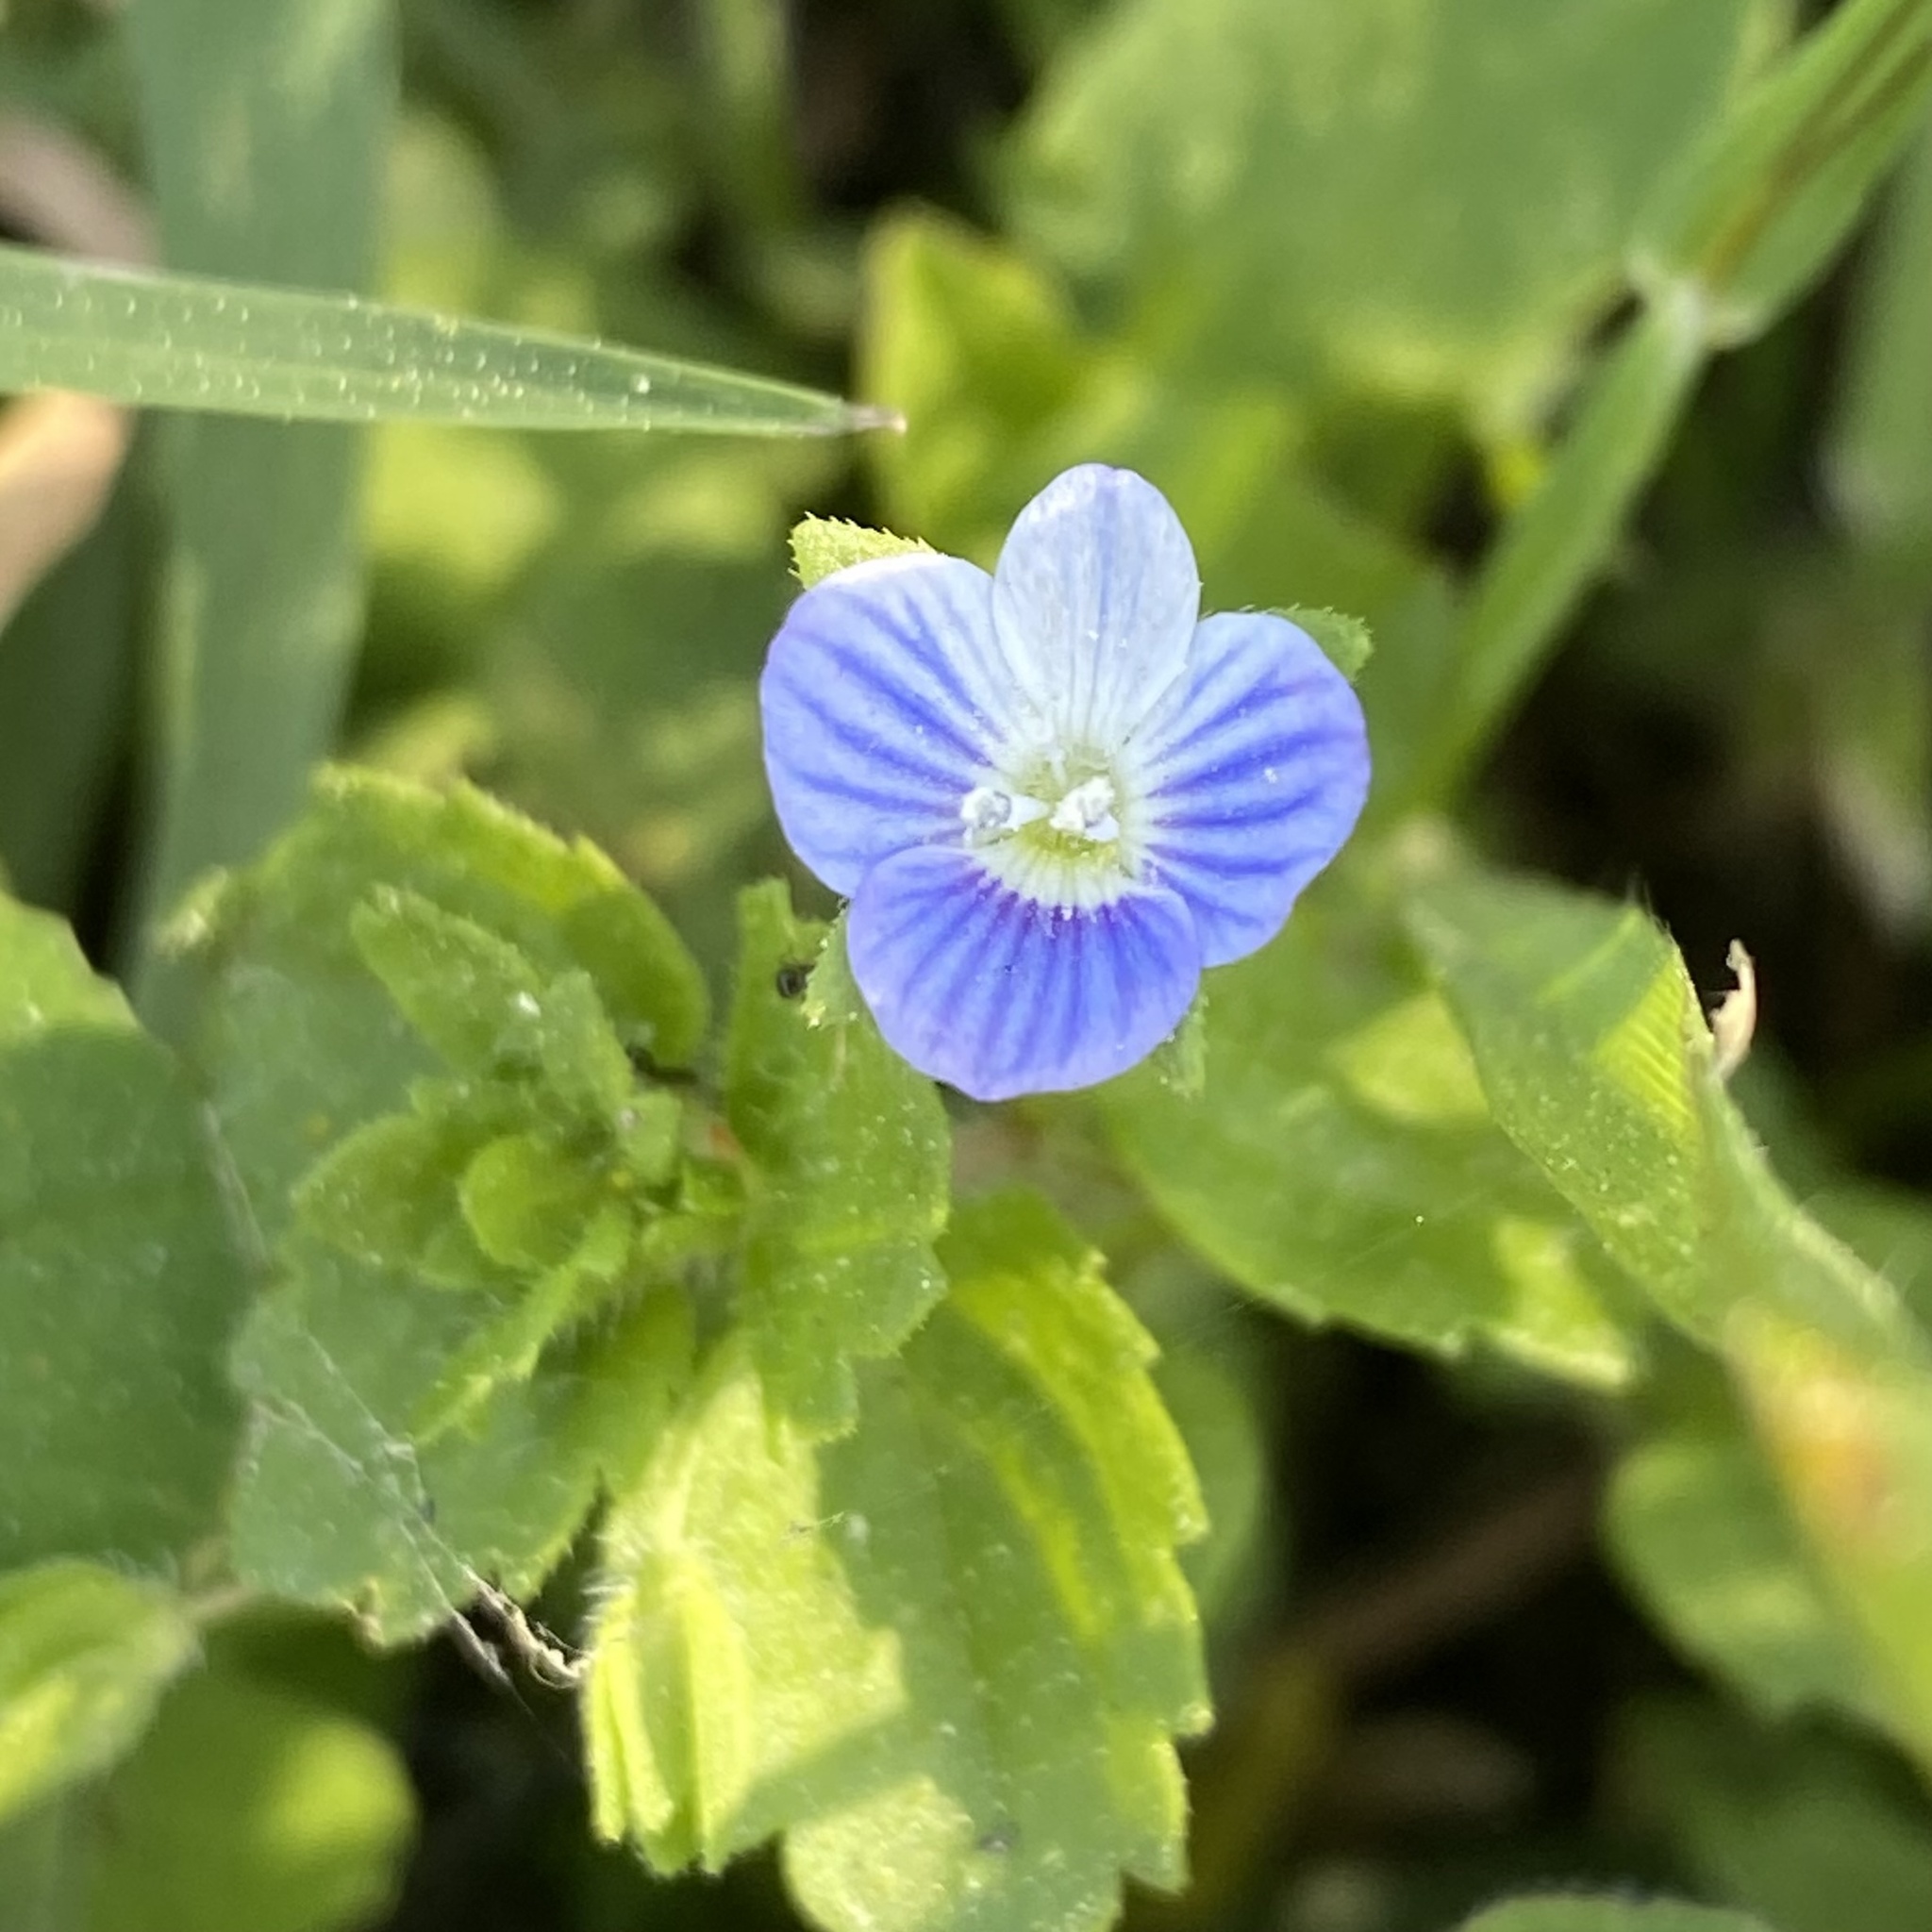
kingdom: Plantae
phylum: Tracheophyta
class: Magnoliopsida
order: Lamiales
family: Plantaginaceae
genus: Veronica
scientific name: Veronica persica
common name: Common field-speedwell
